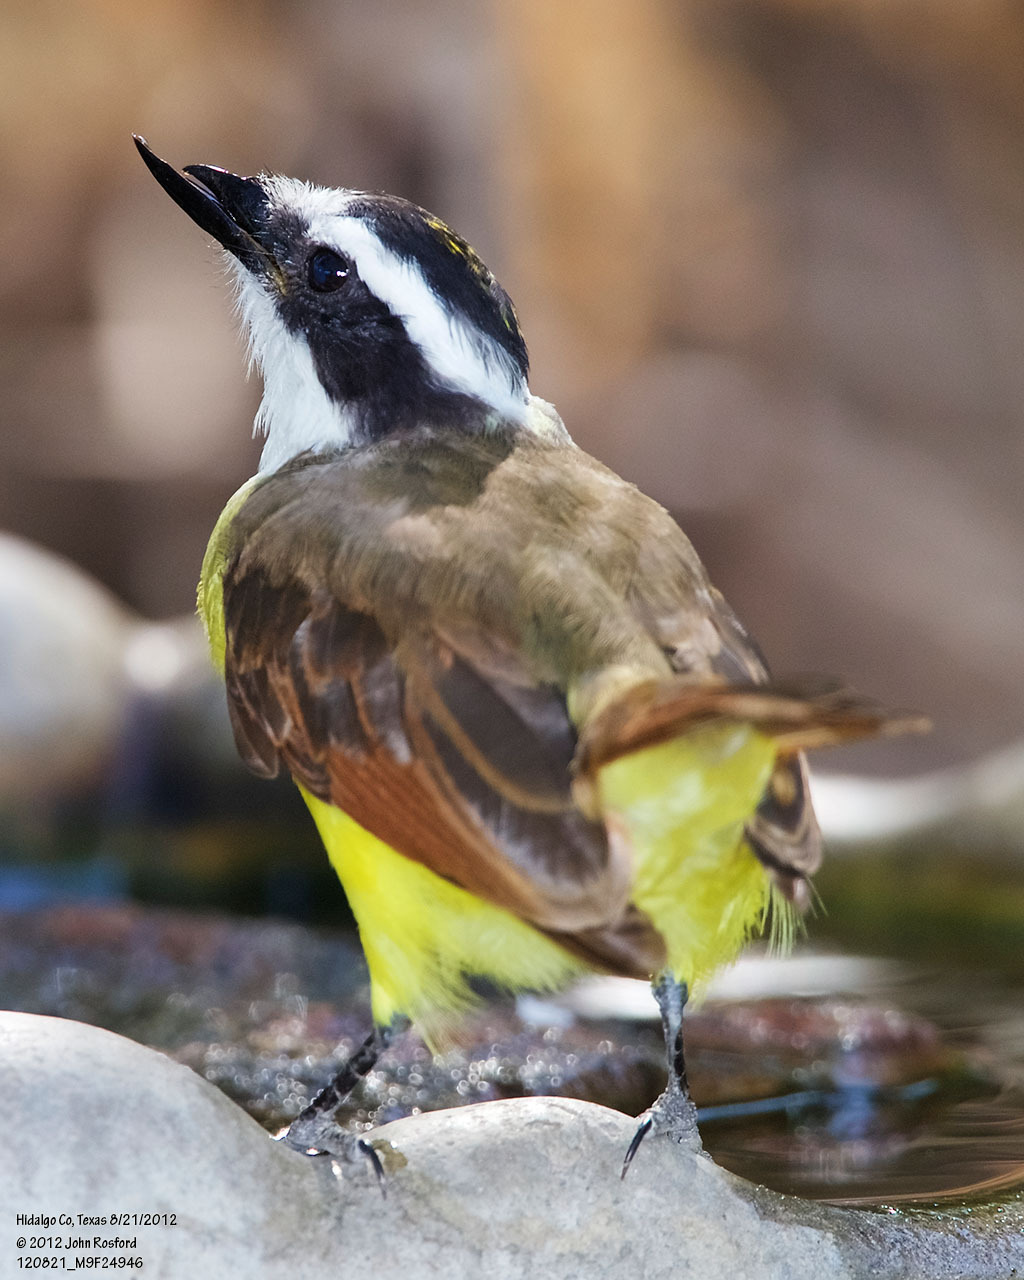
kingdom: Animalia
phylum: Chordata
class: Aves
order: Passeriformes
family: Tyrannidae
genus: Pitangus
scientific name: Pitangus sulphuratus
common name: Great kiskadee
